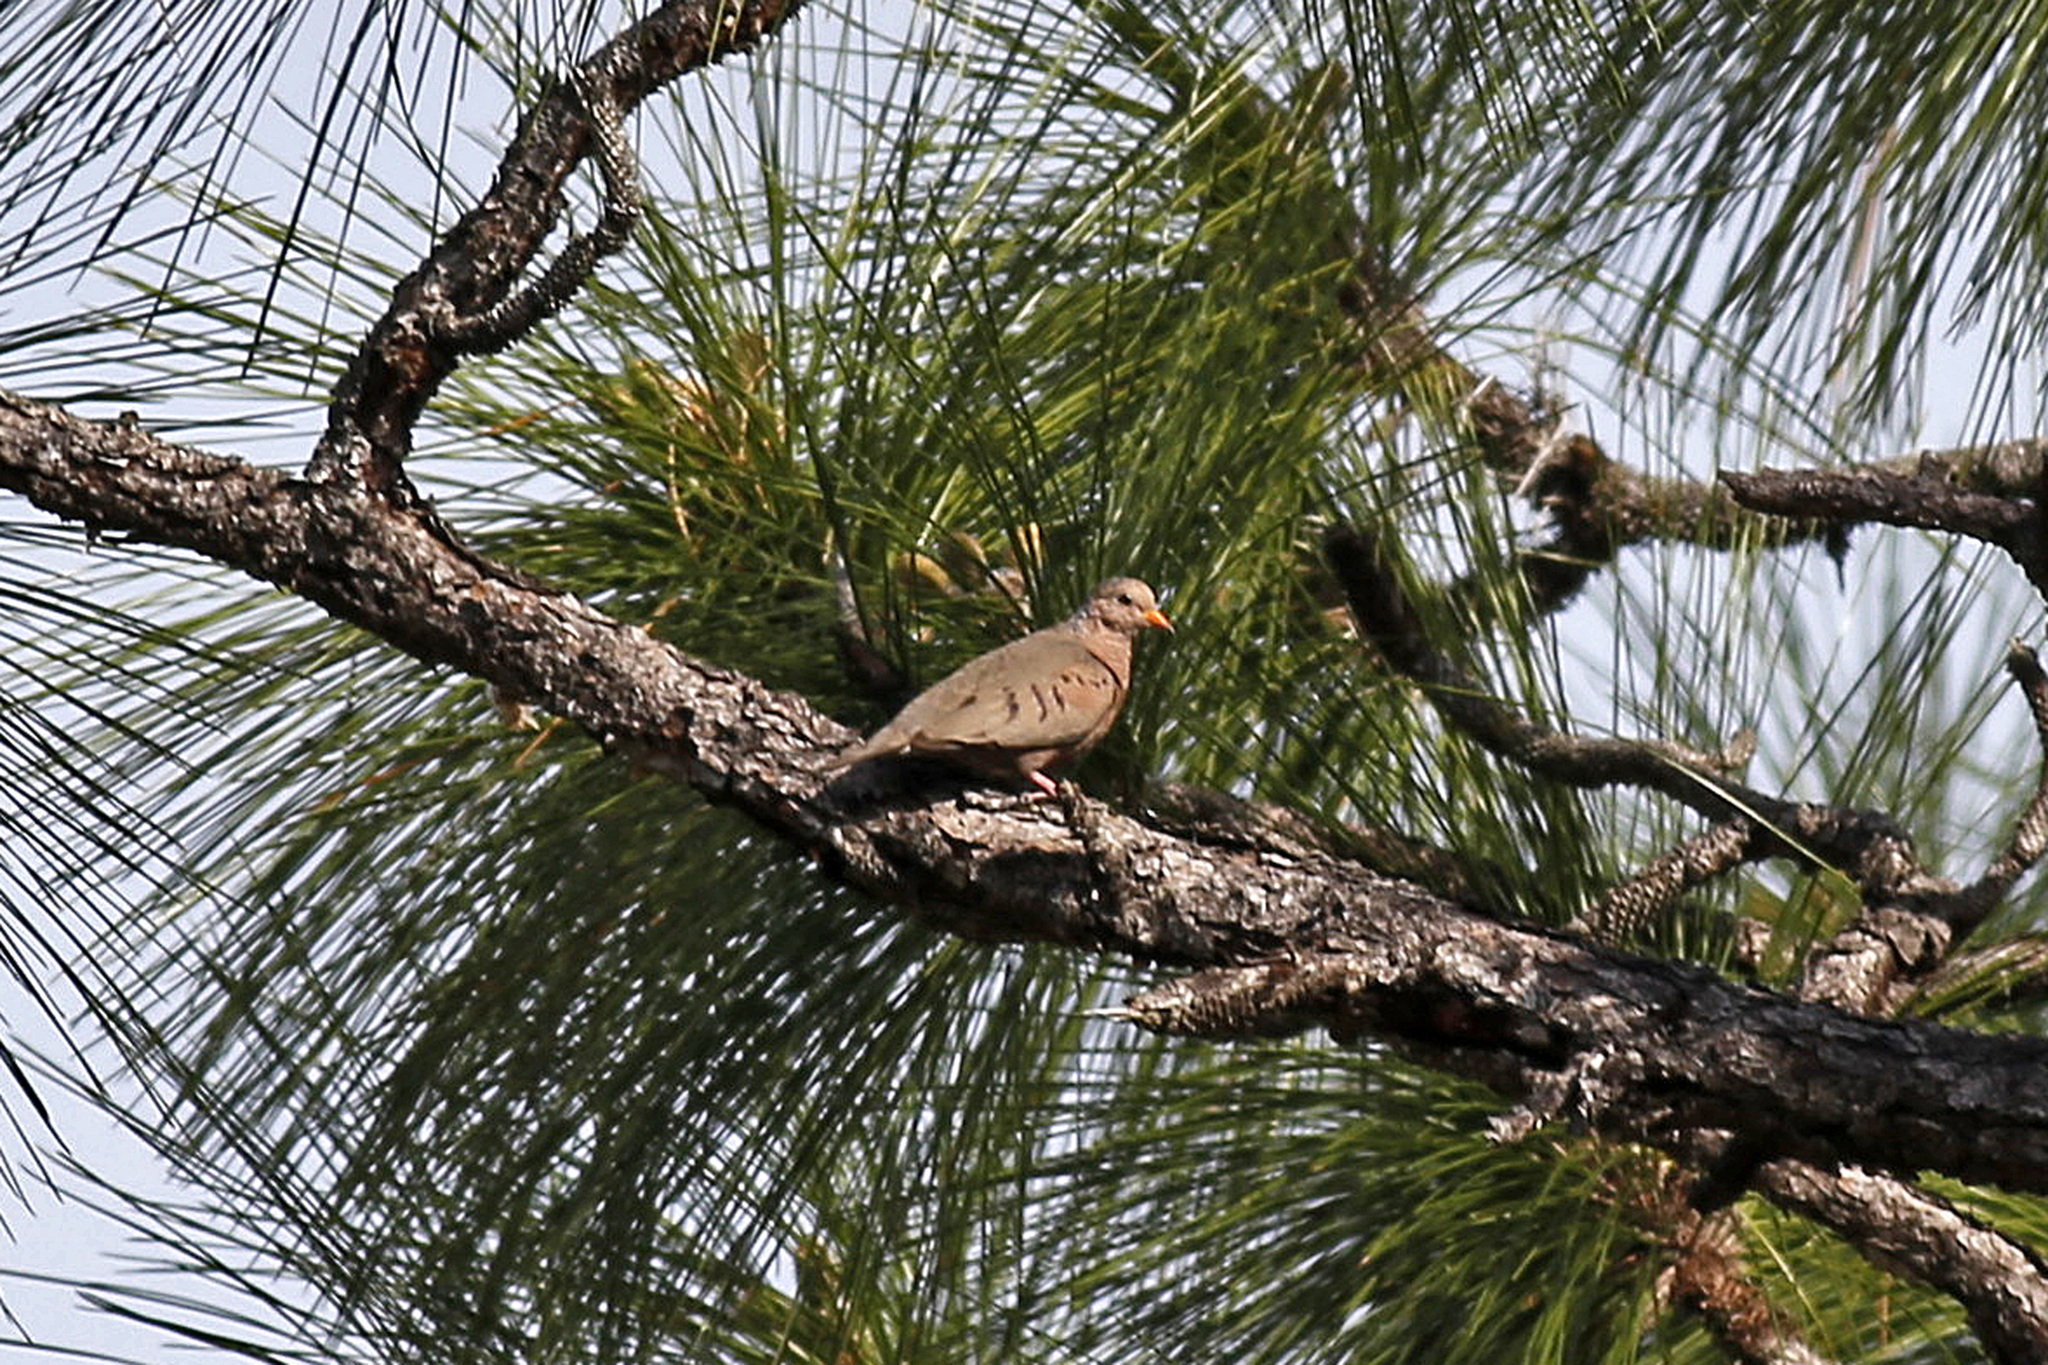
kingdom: Animalia
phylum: Chordata
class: Aves
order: Columbiformes
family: Columbidae
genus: Columbina
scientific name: Columbina passerina
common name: Common ground-dove
